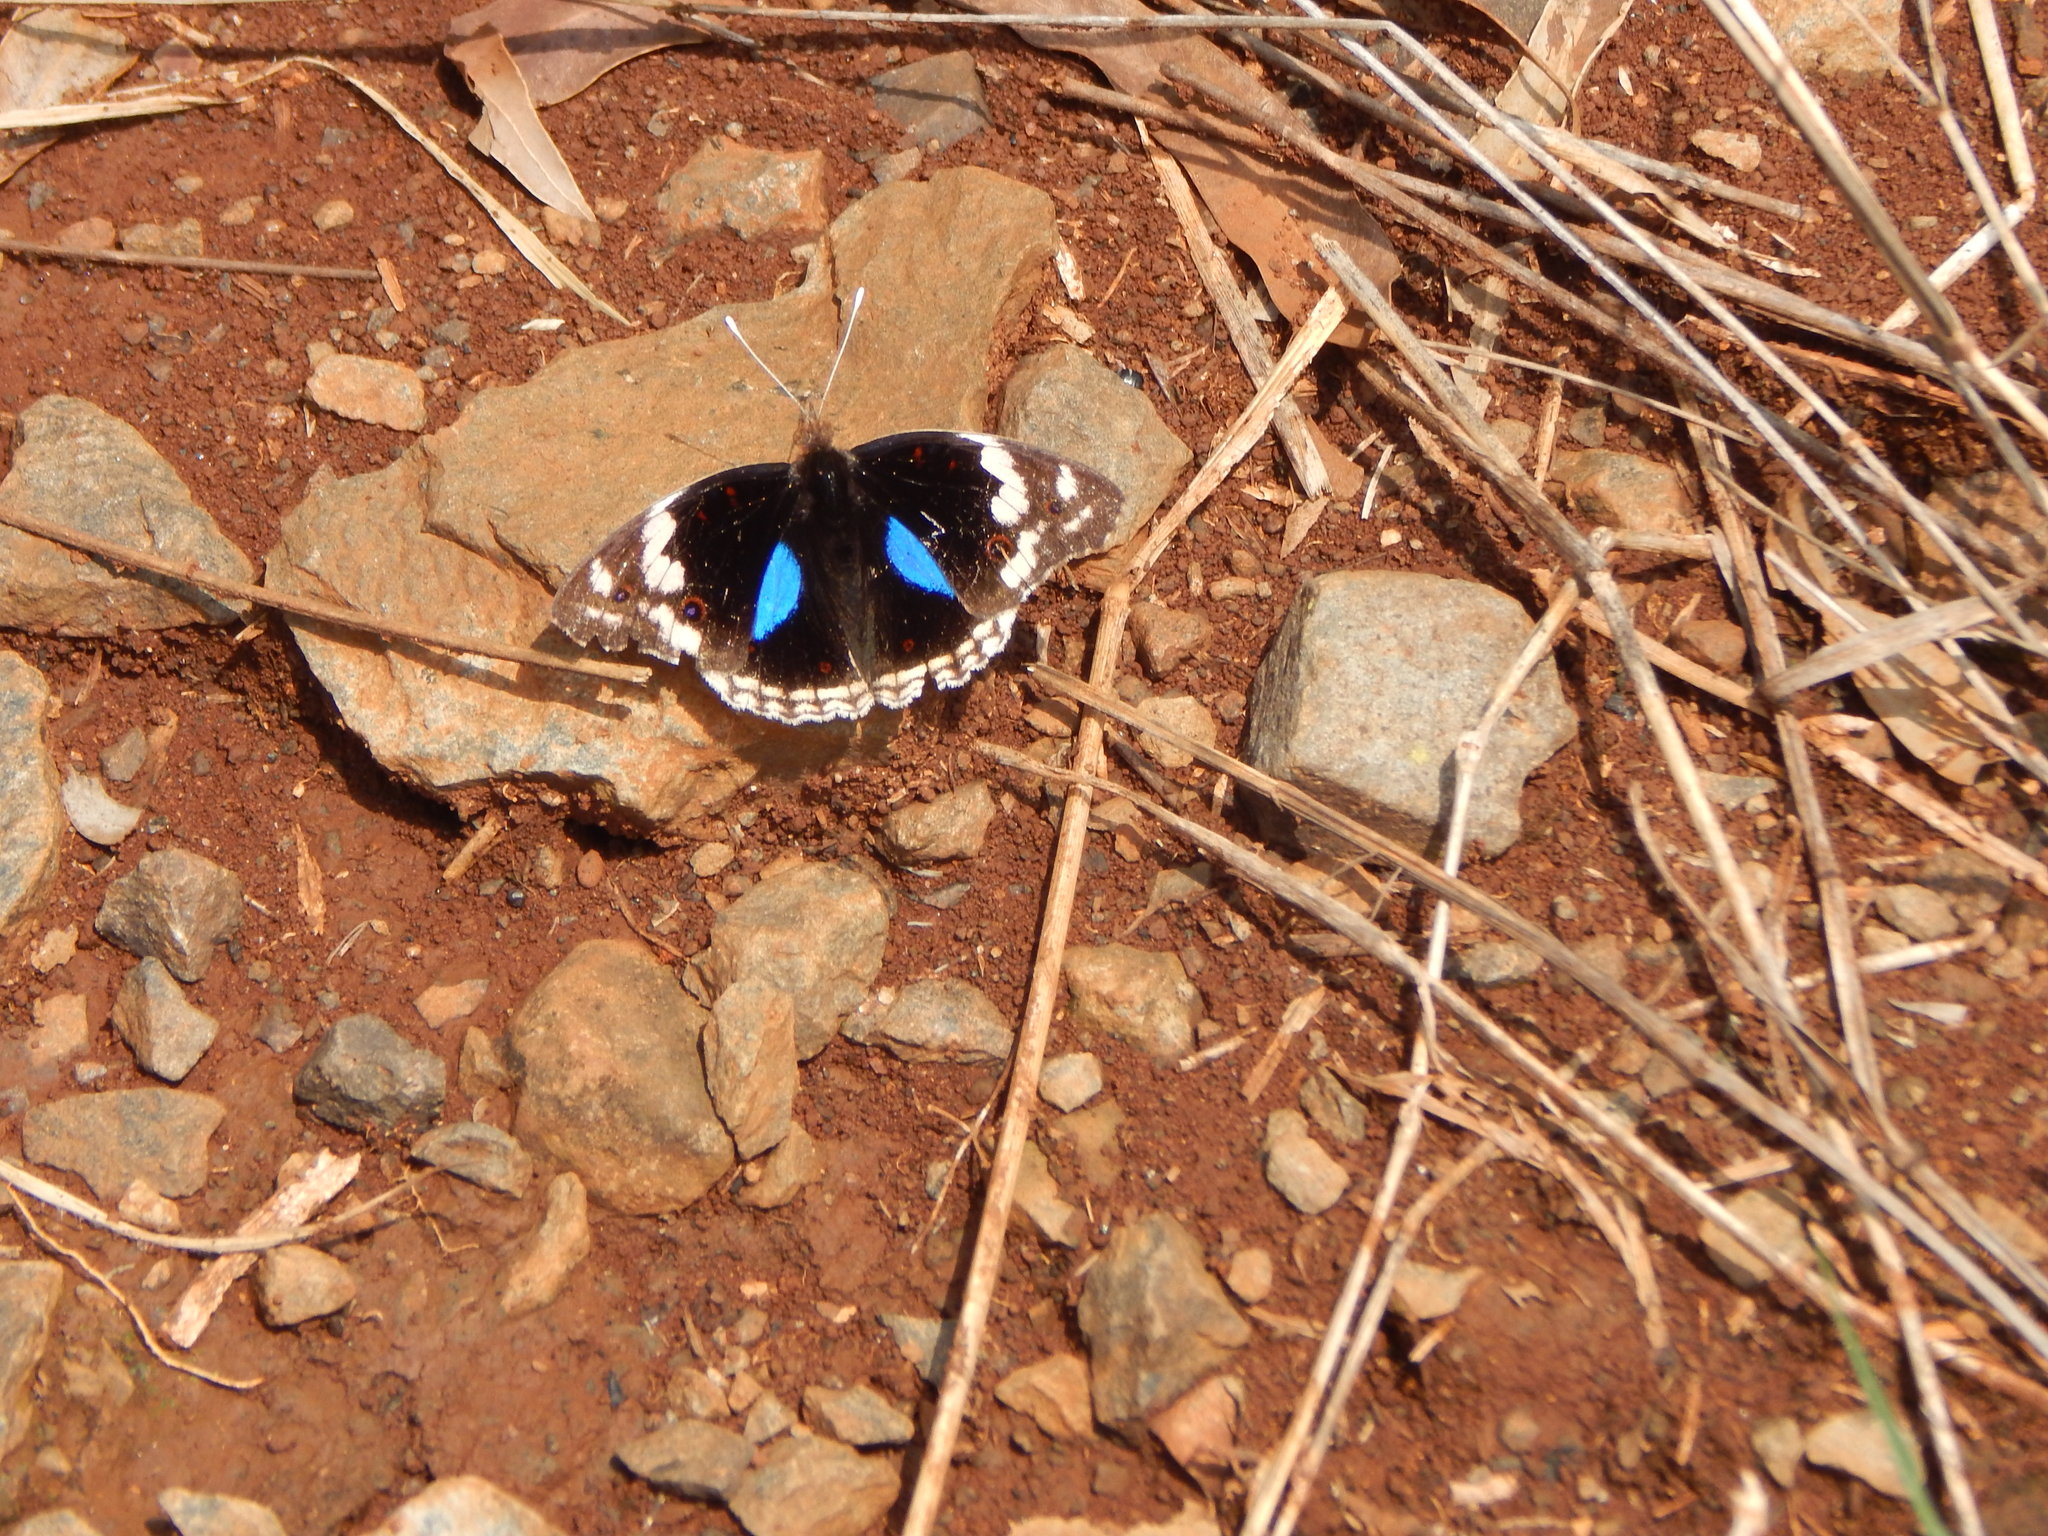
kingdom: Animalia
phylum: Arthropoda
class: Insecta
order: Lepidoptera
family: Nymphalidae
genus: Junonia
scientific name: Junonia oenone
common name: Dark blue pansy
